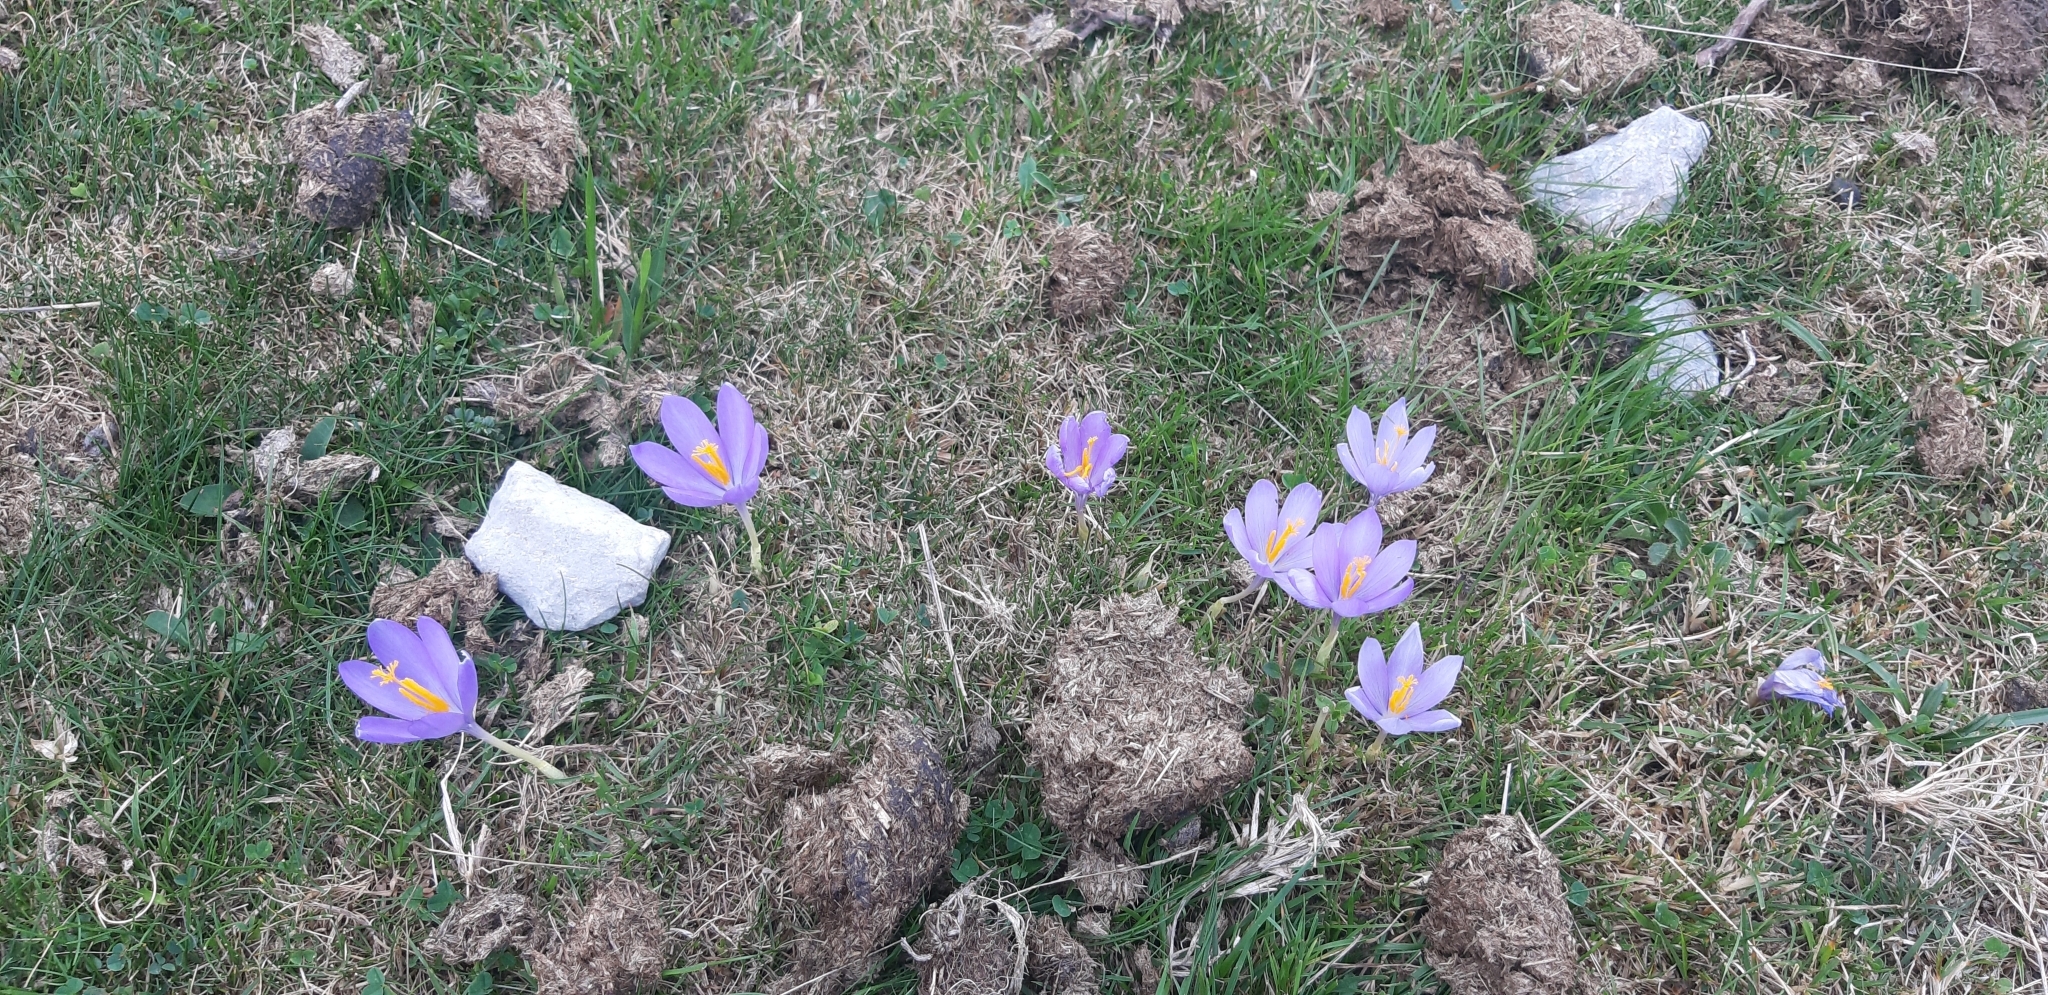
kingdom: Plantae
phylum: Tracheophyta
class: Liliopsida
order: Asparagales
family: Iridaceae
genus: Crocus
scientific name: Crocus nudiflorus
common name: Autumn crocus
